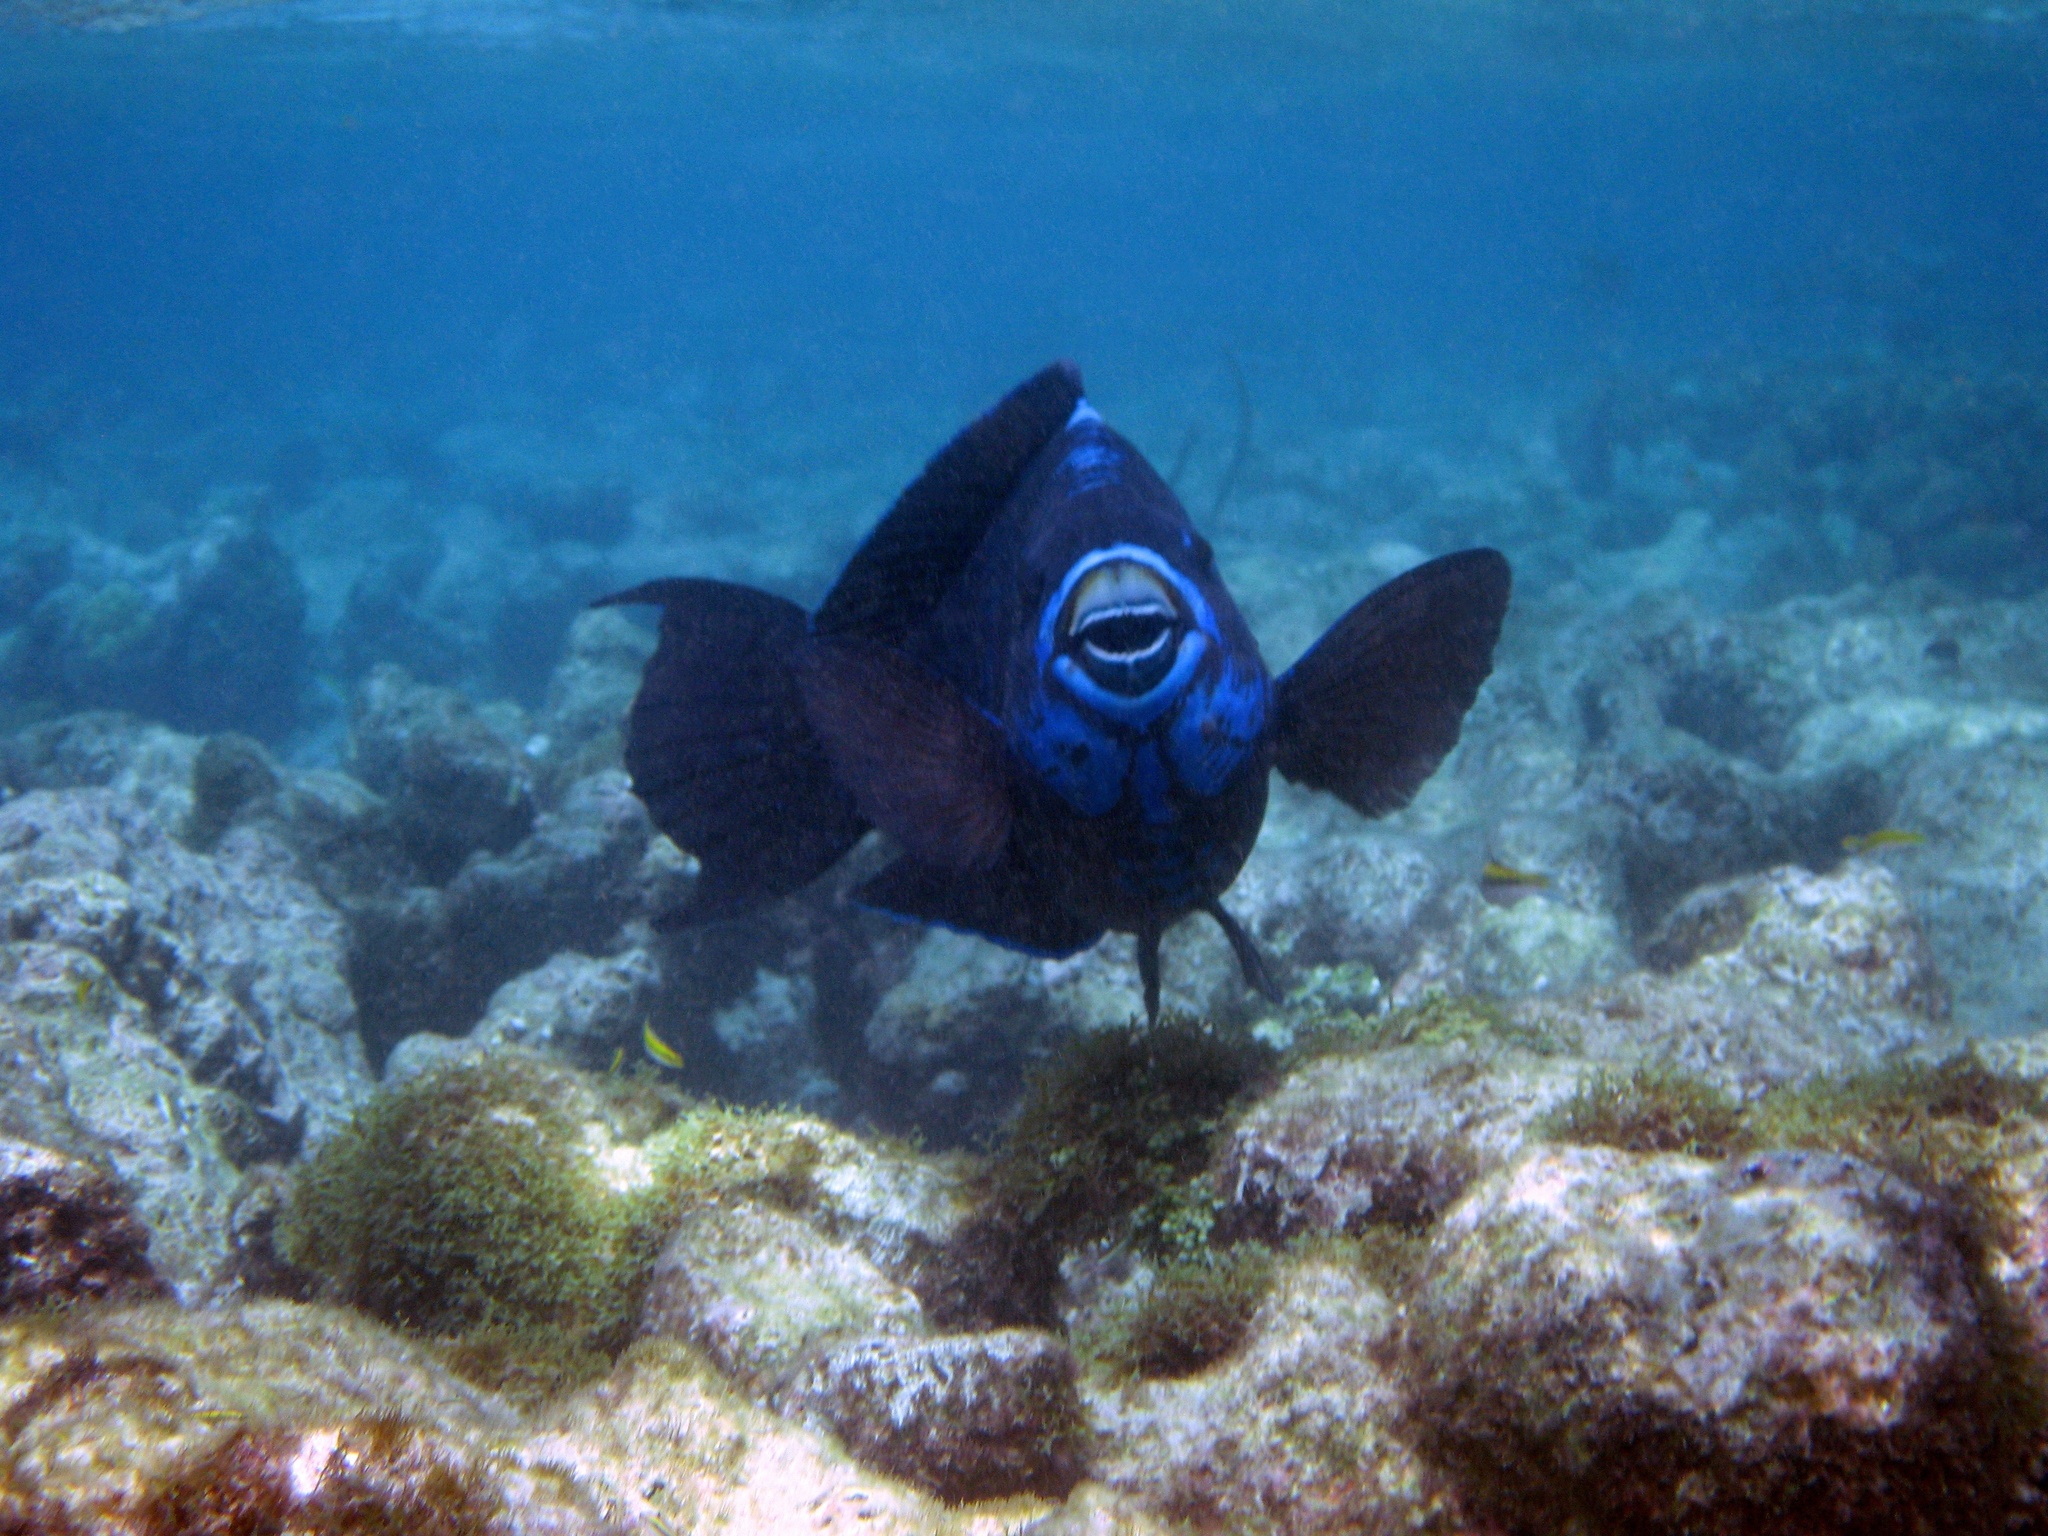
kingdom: Animalia
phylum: Chordata
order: Perciformes
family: Scaridae
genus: Scarus
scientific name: Scarus coelestinus
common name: Midnight parrotfish
